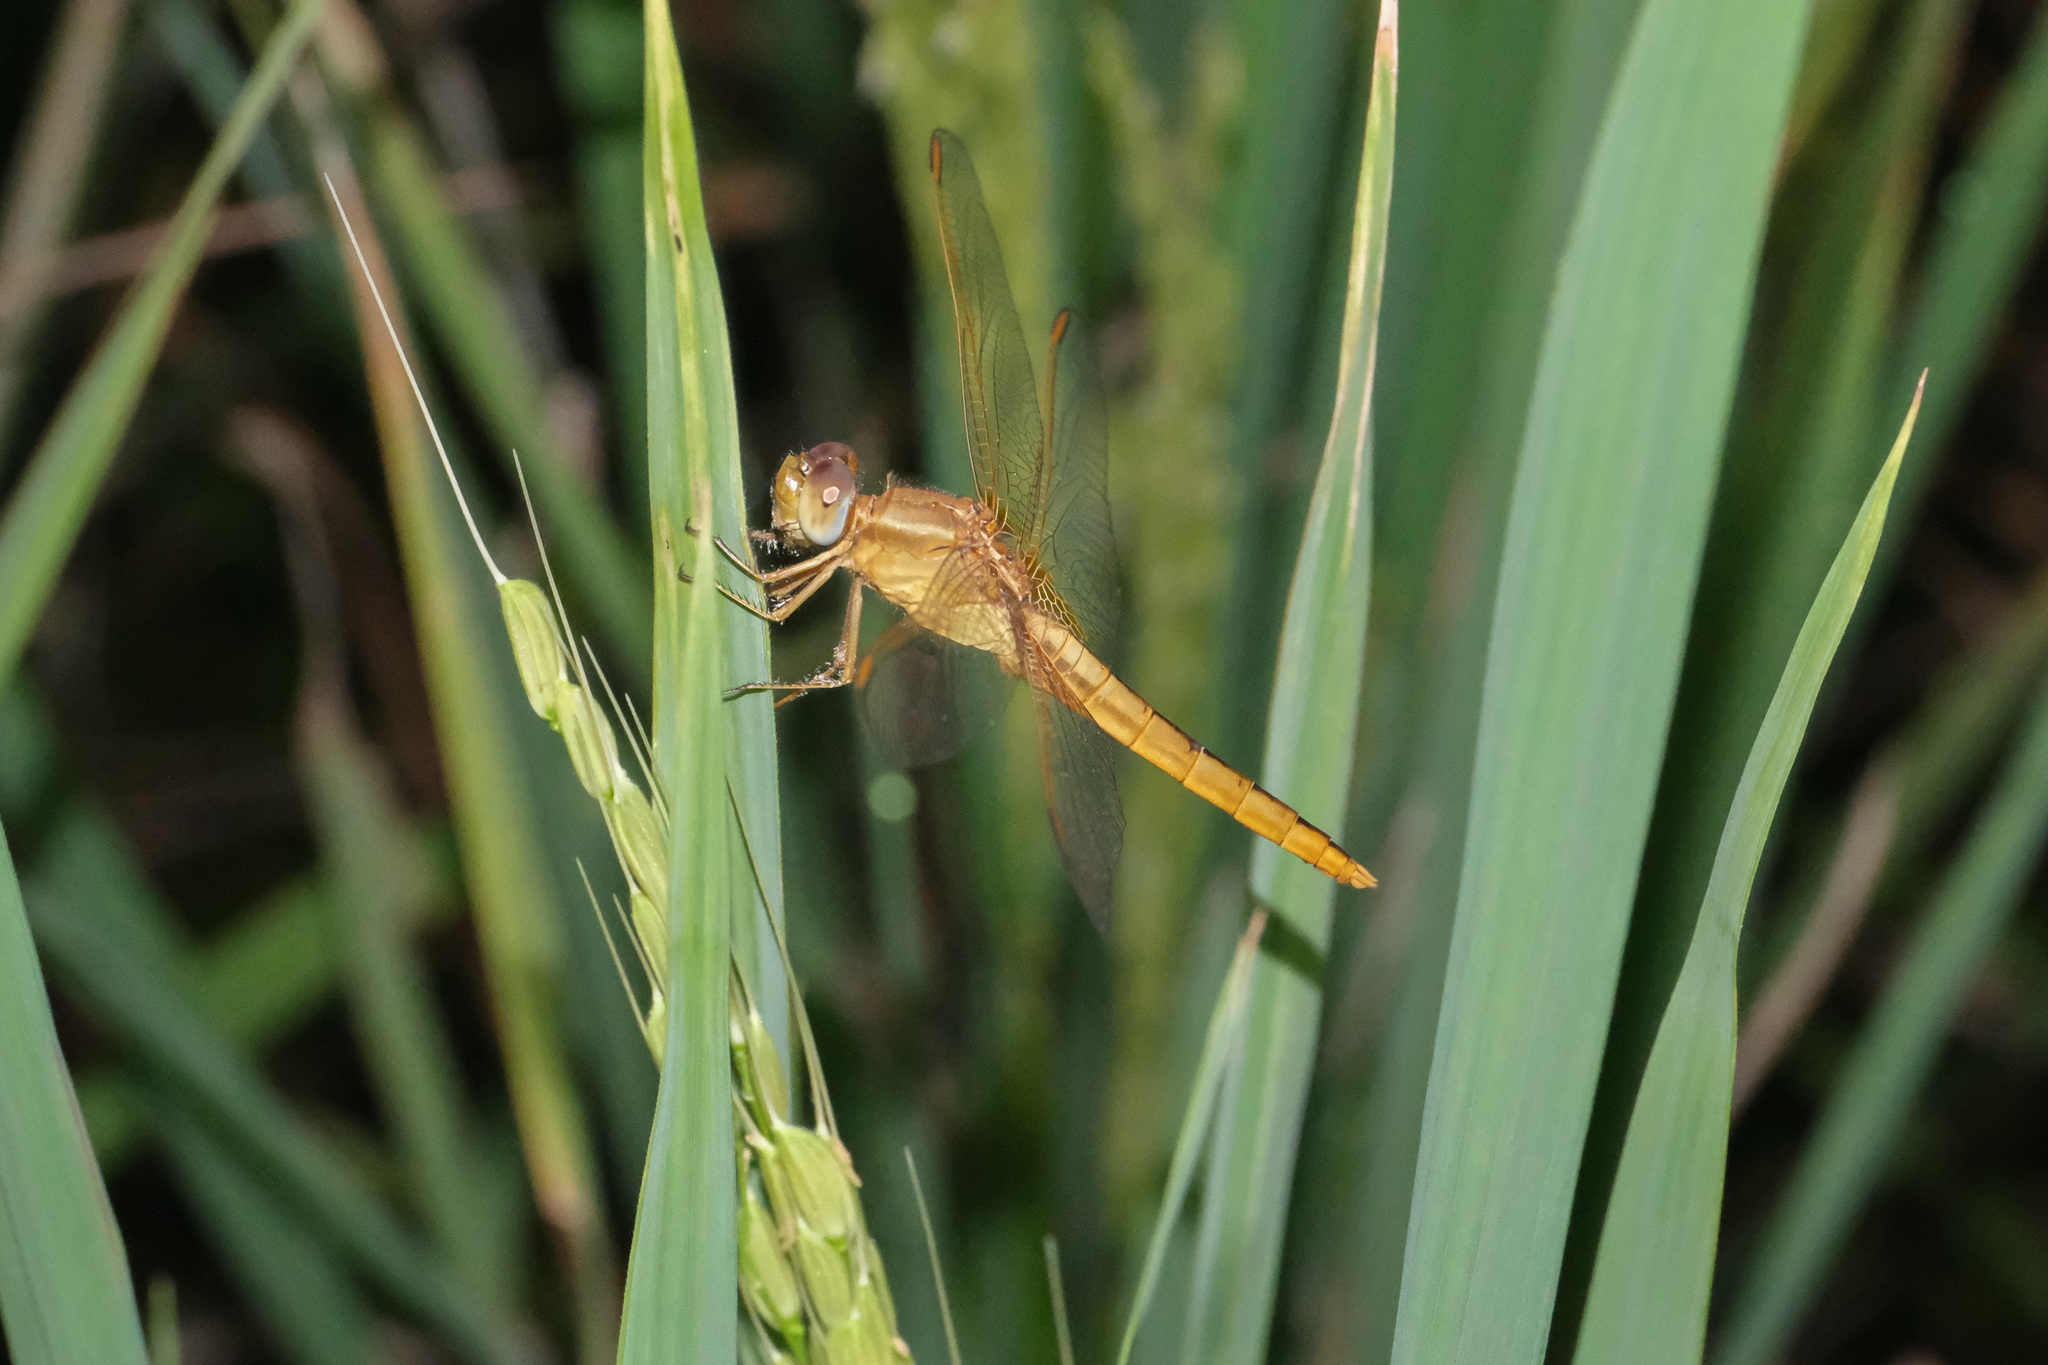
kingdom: Animalia
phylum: Arthropoda
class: Insecta
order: Odonata
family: Libellulidae
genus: Crocothemis
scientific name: Crocothemis servilia
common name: Scarlet skimmer
